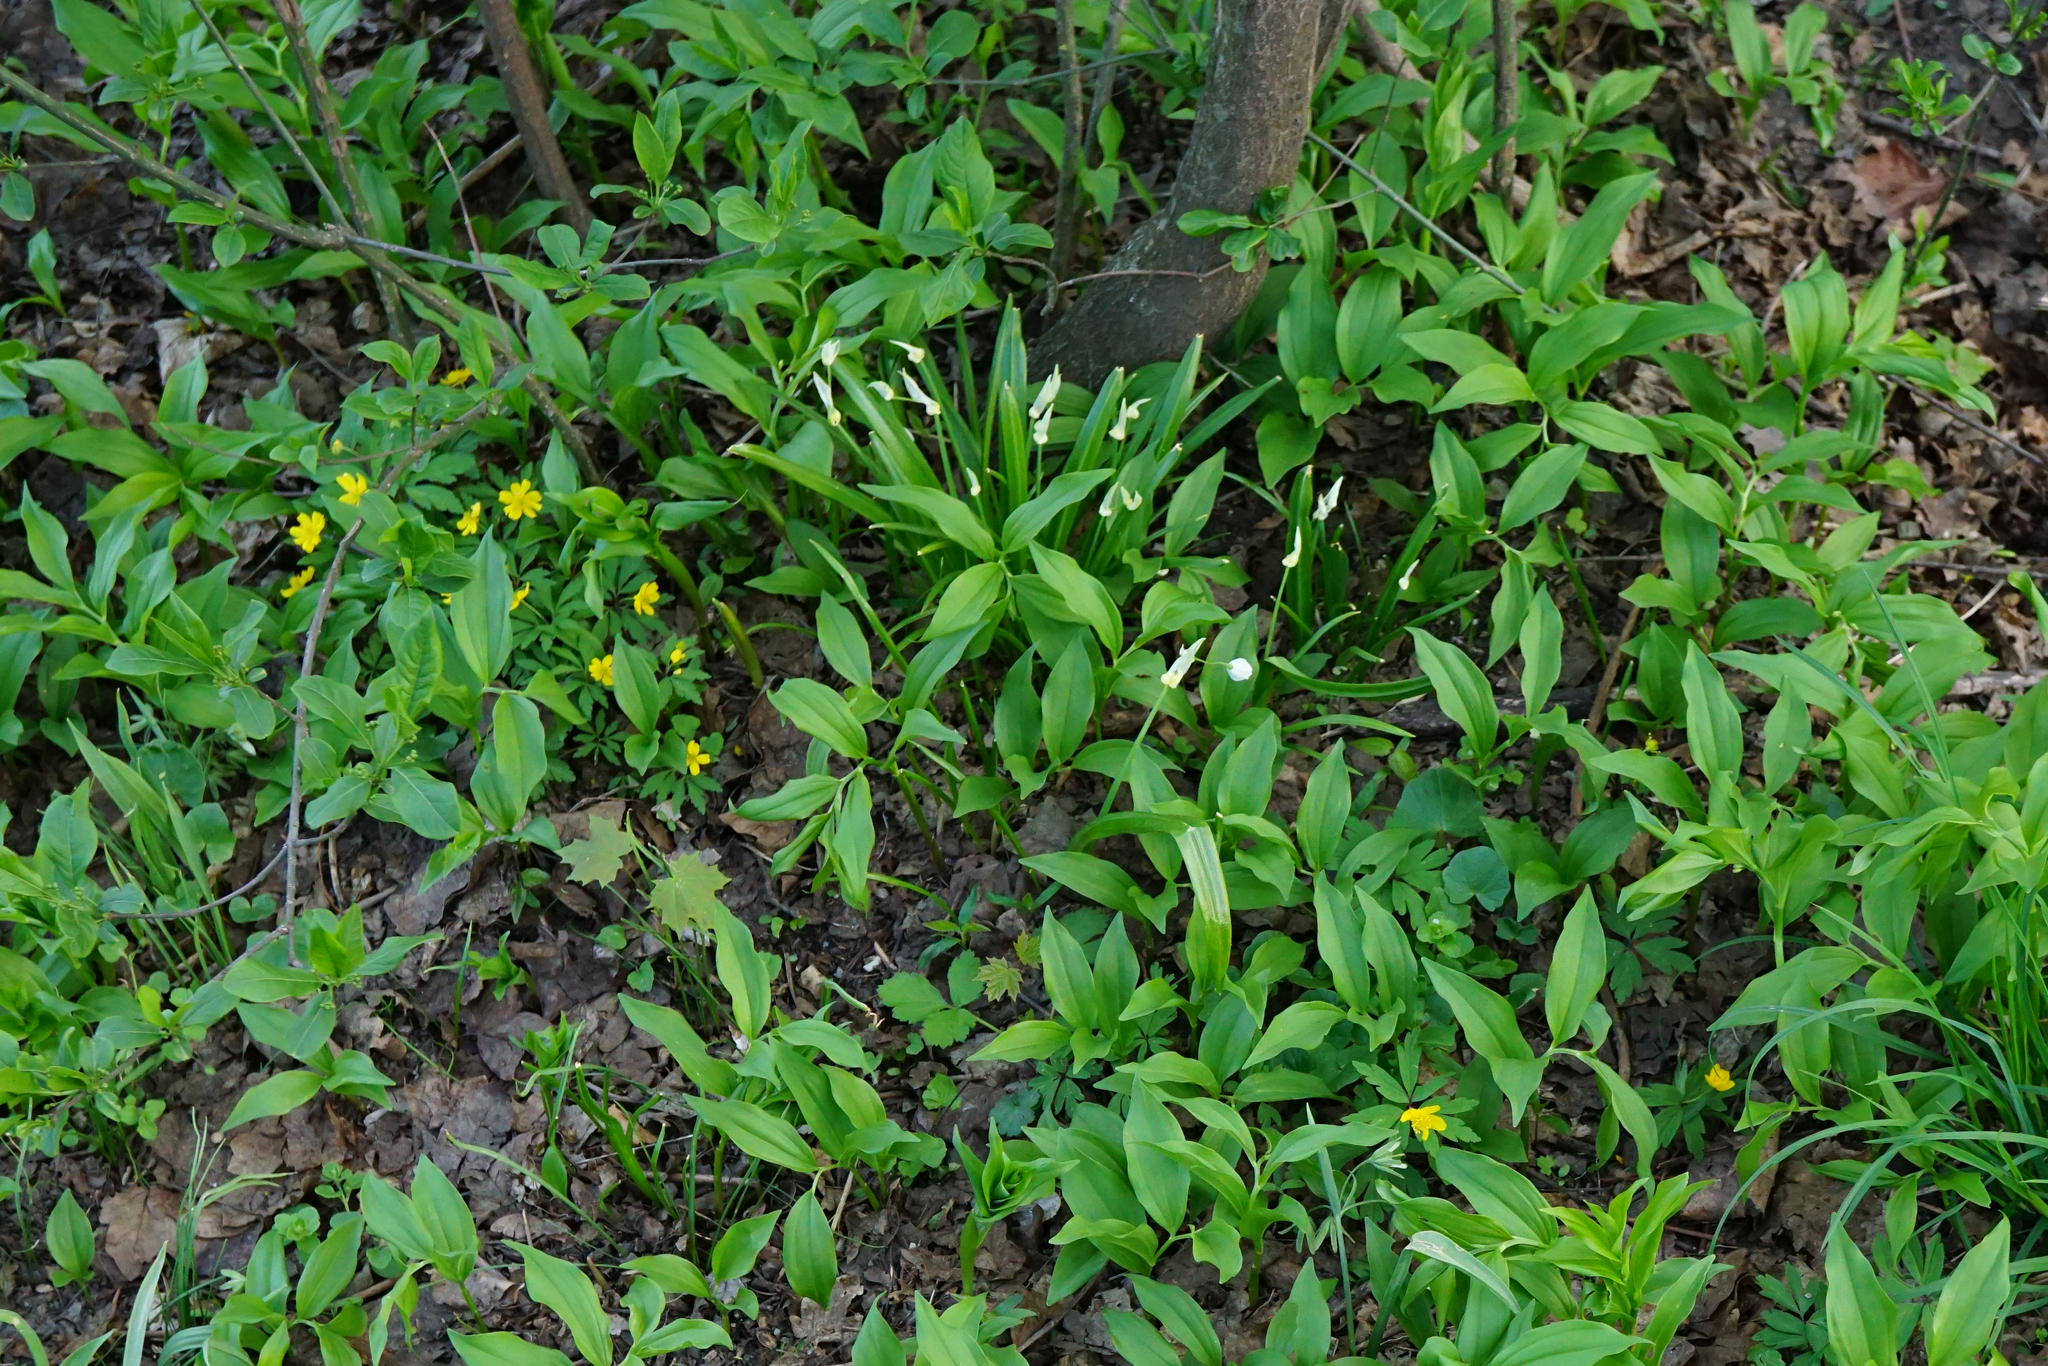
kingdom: Plantae
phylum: Tracheophyta
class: Liliopsida
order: Asparagales
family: Amaryllidaceae
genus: Allium
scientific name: Allium paradoxum
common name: Few-flowered garlic
